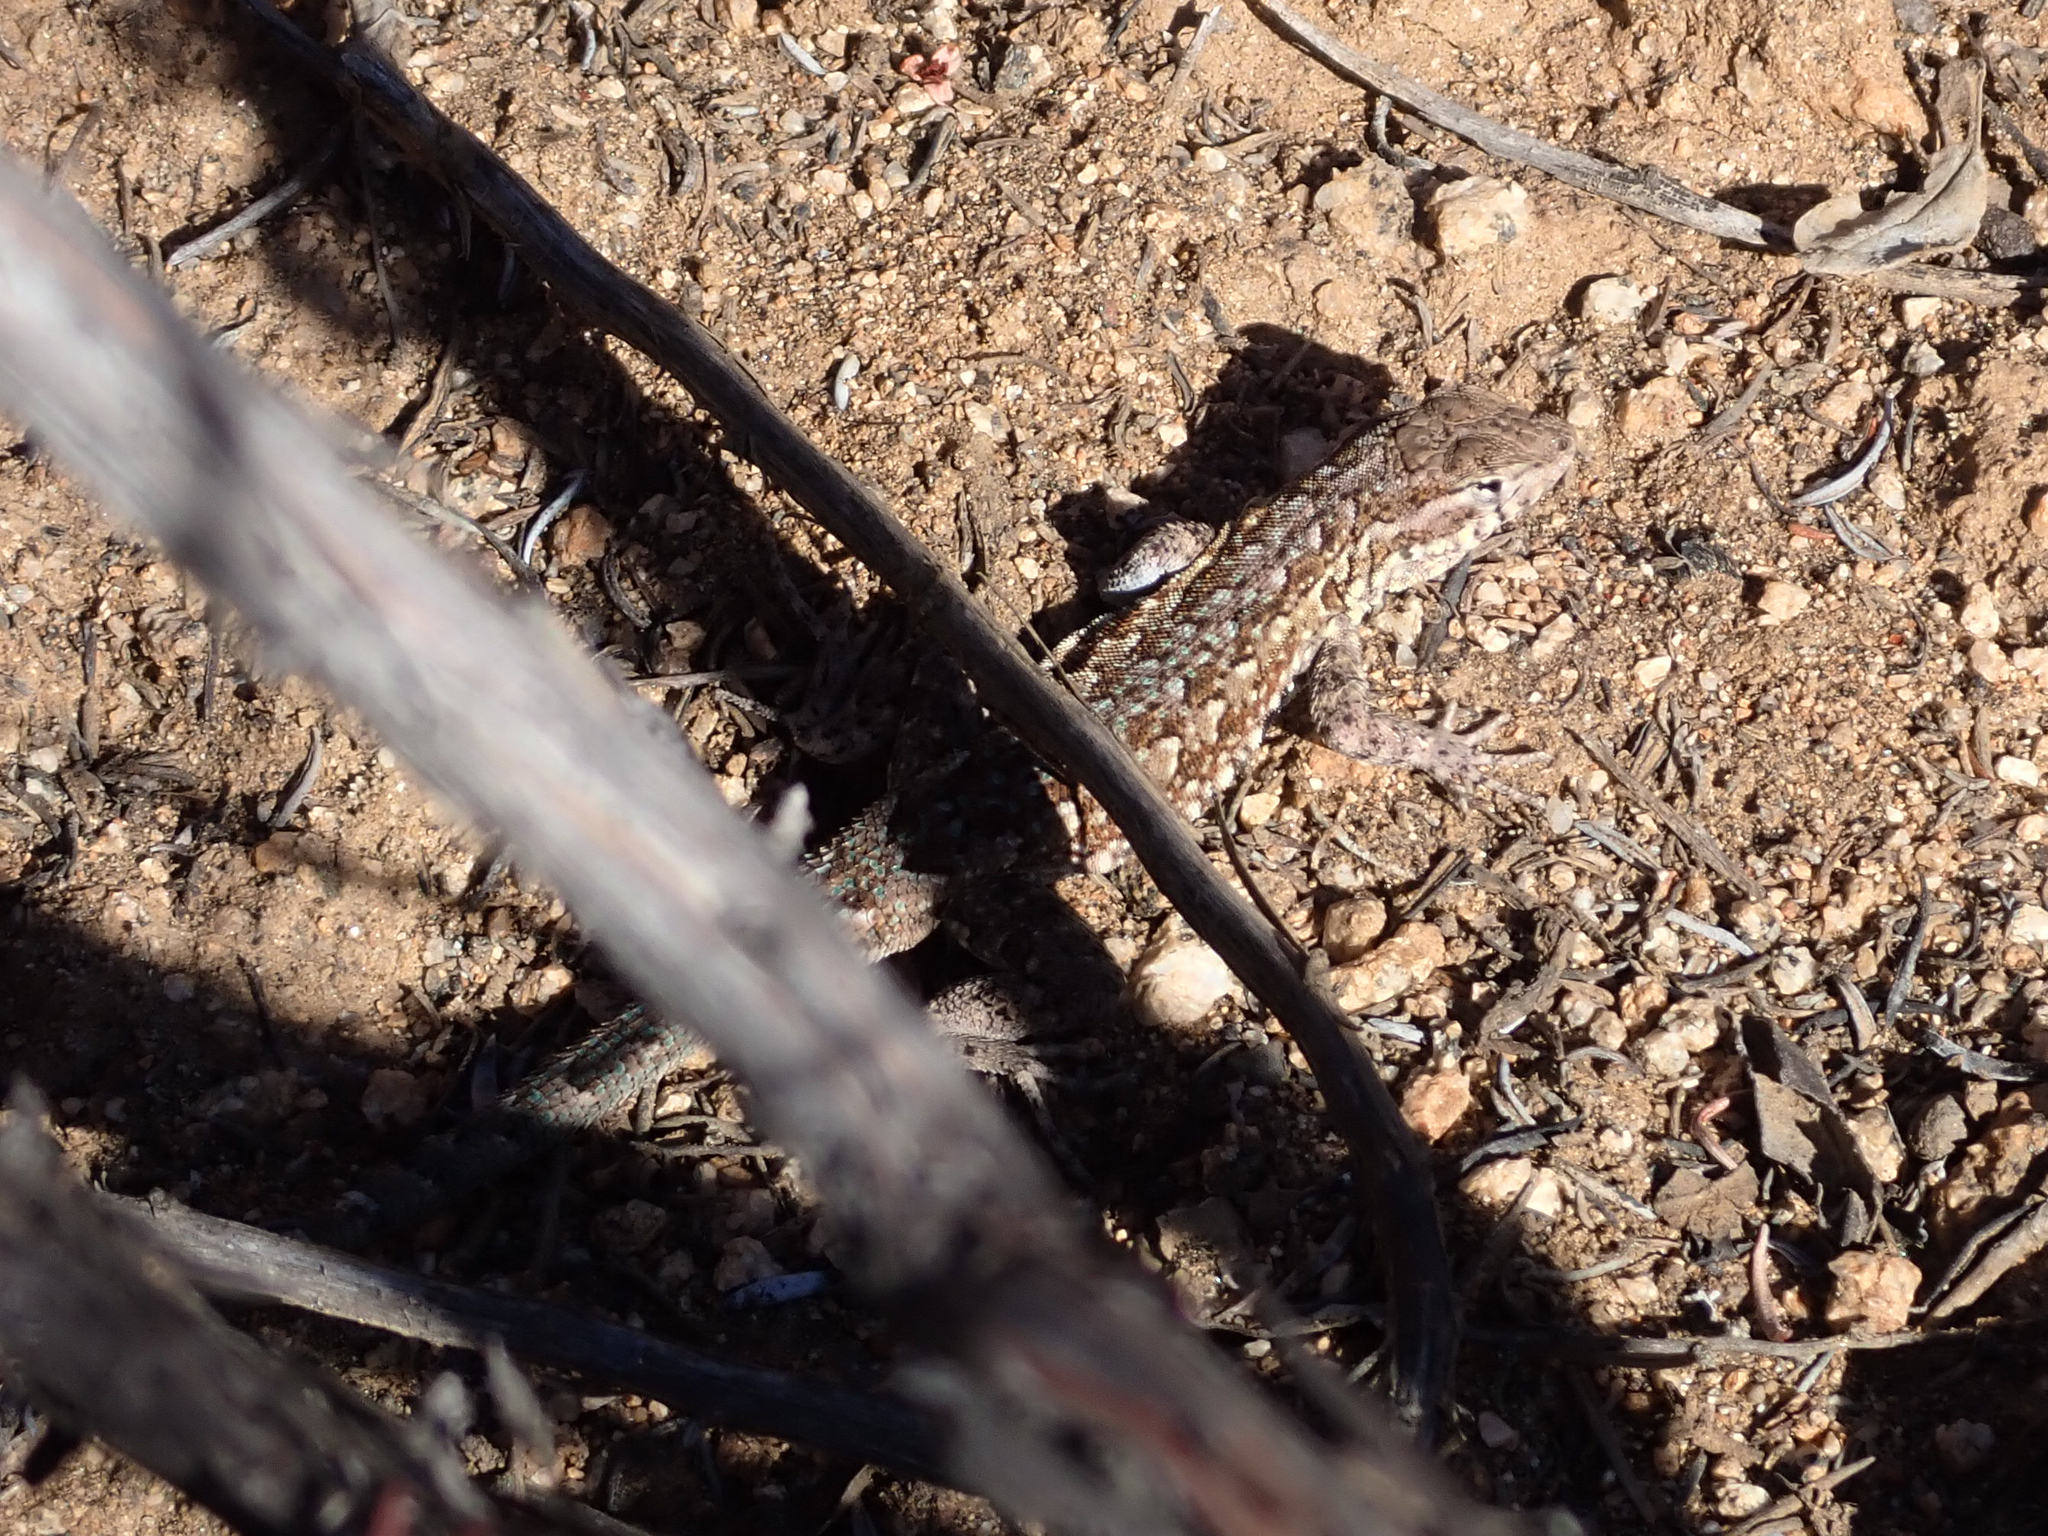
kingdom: Animalia
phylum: Chordata
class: Squamata
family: Phrynosomatidae
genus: Uta
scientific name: Uta stansburiana
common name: Side-blotched lizard
